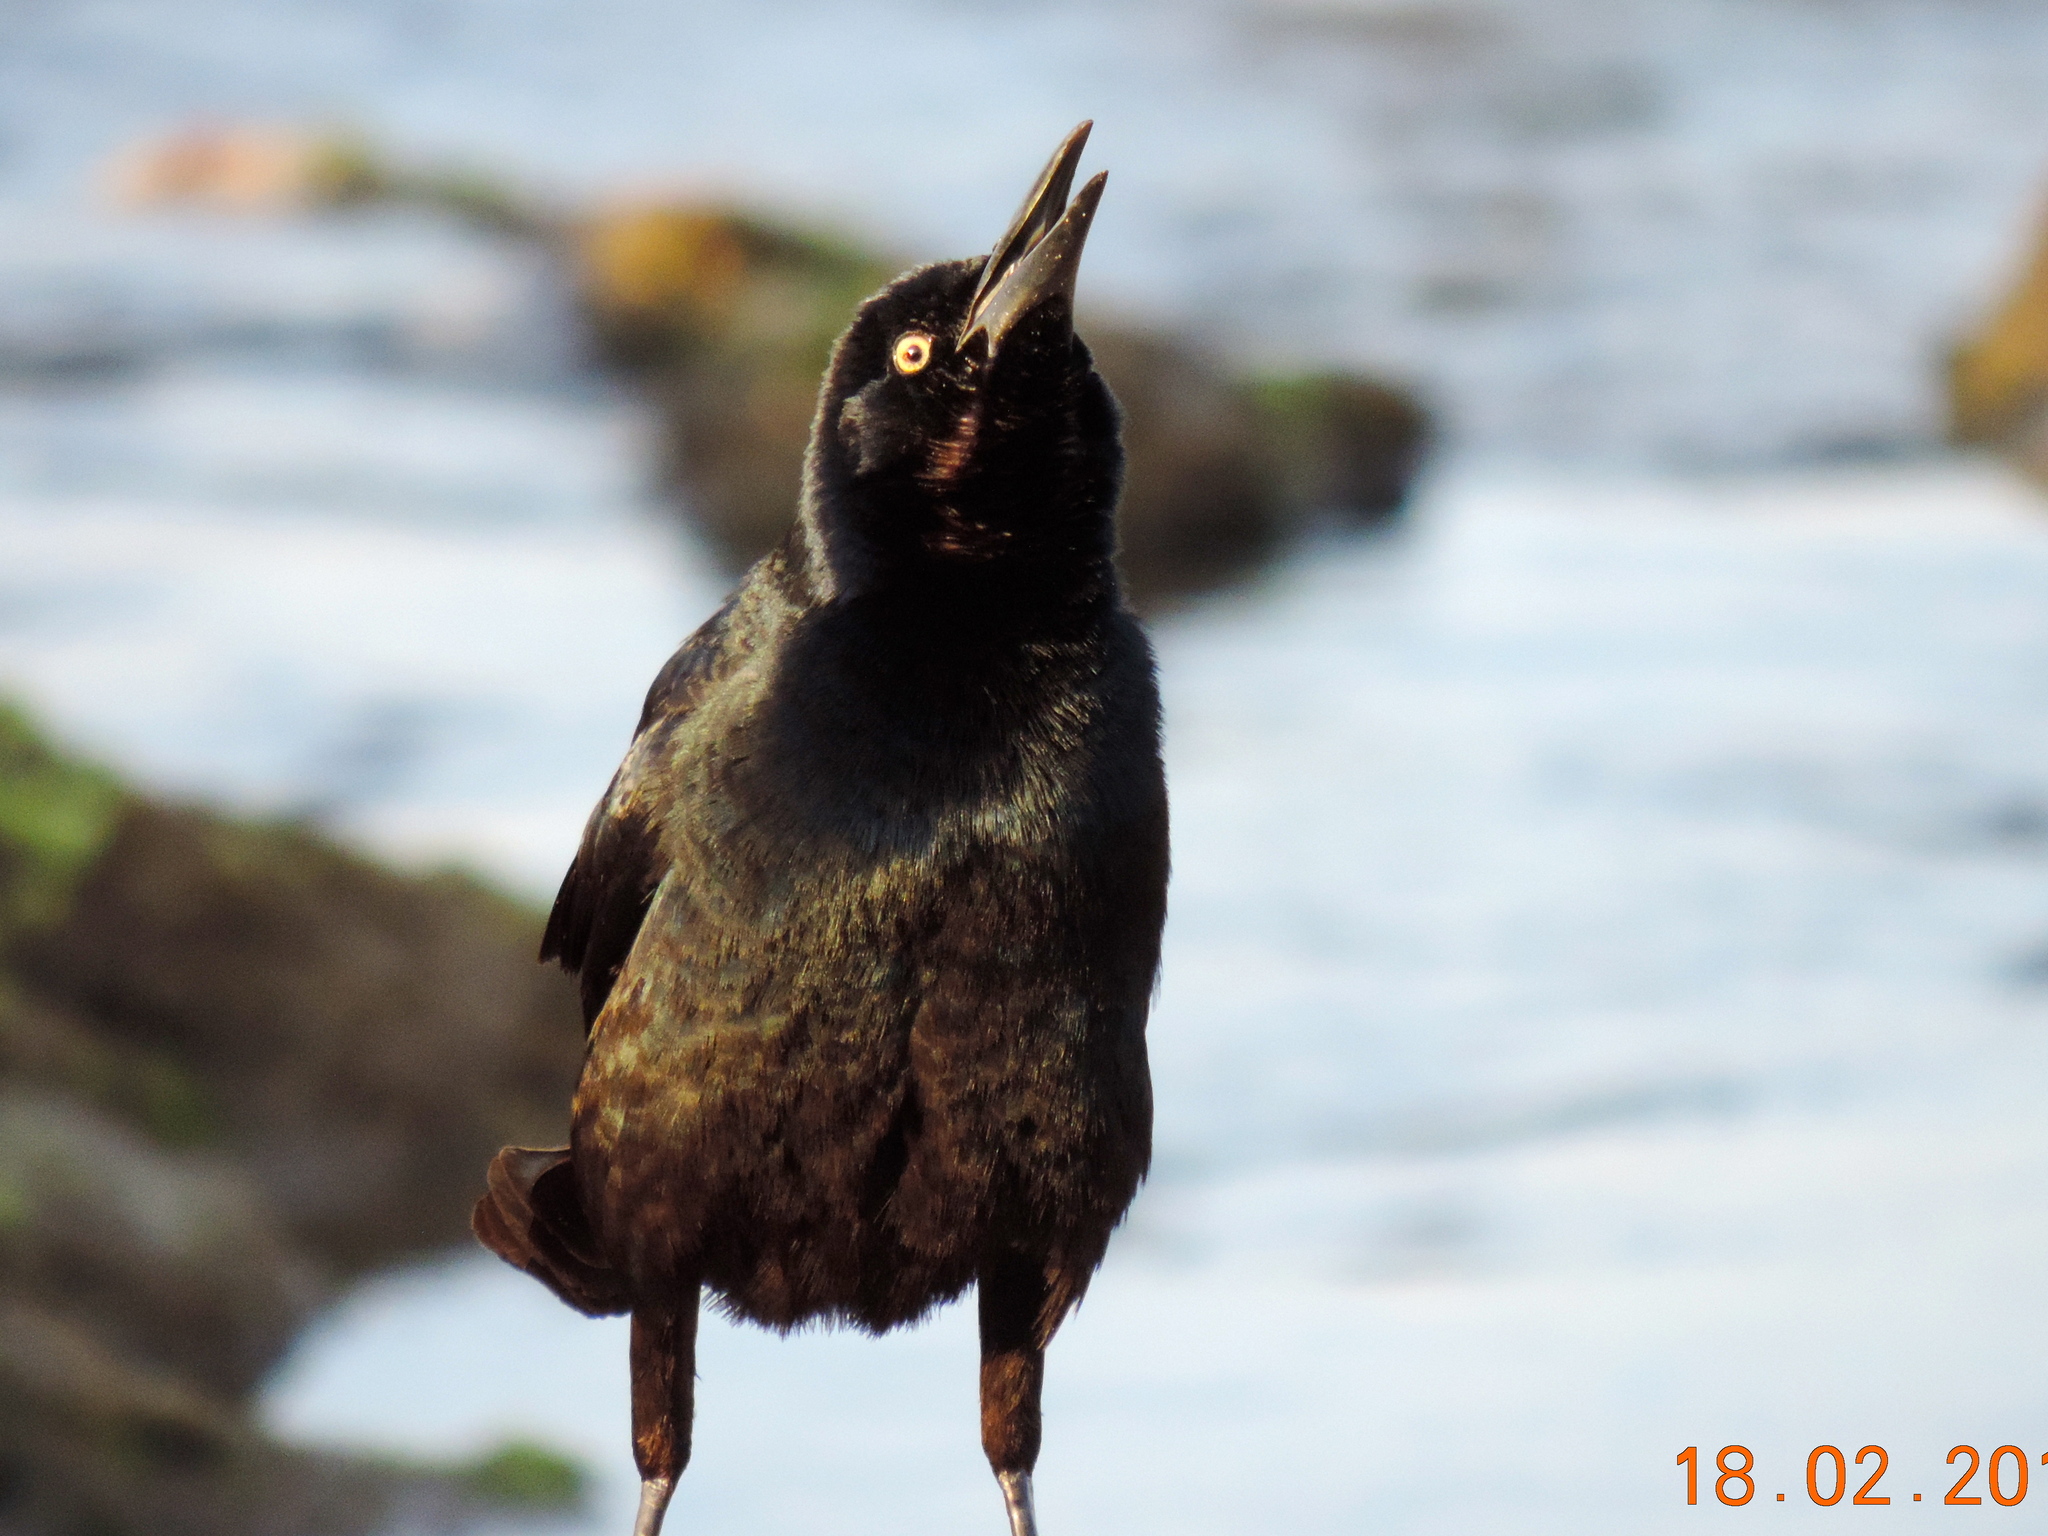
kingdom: Animalia
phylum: Chordata
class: Aves
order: Passeriformes
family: Icteridae
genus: Quiscalus
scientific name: Quiscalus mexicanus
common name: Great-tailed grackle
